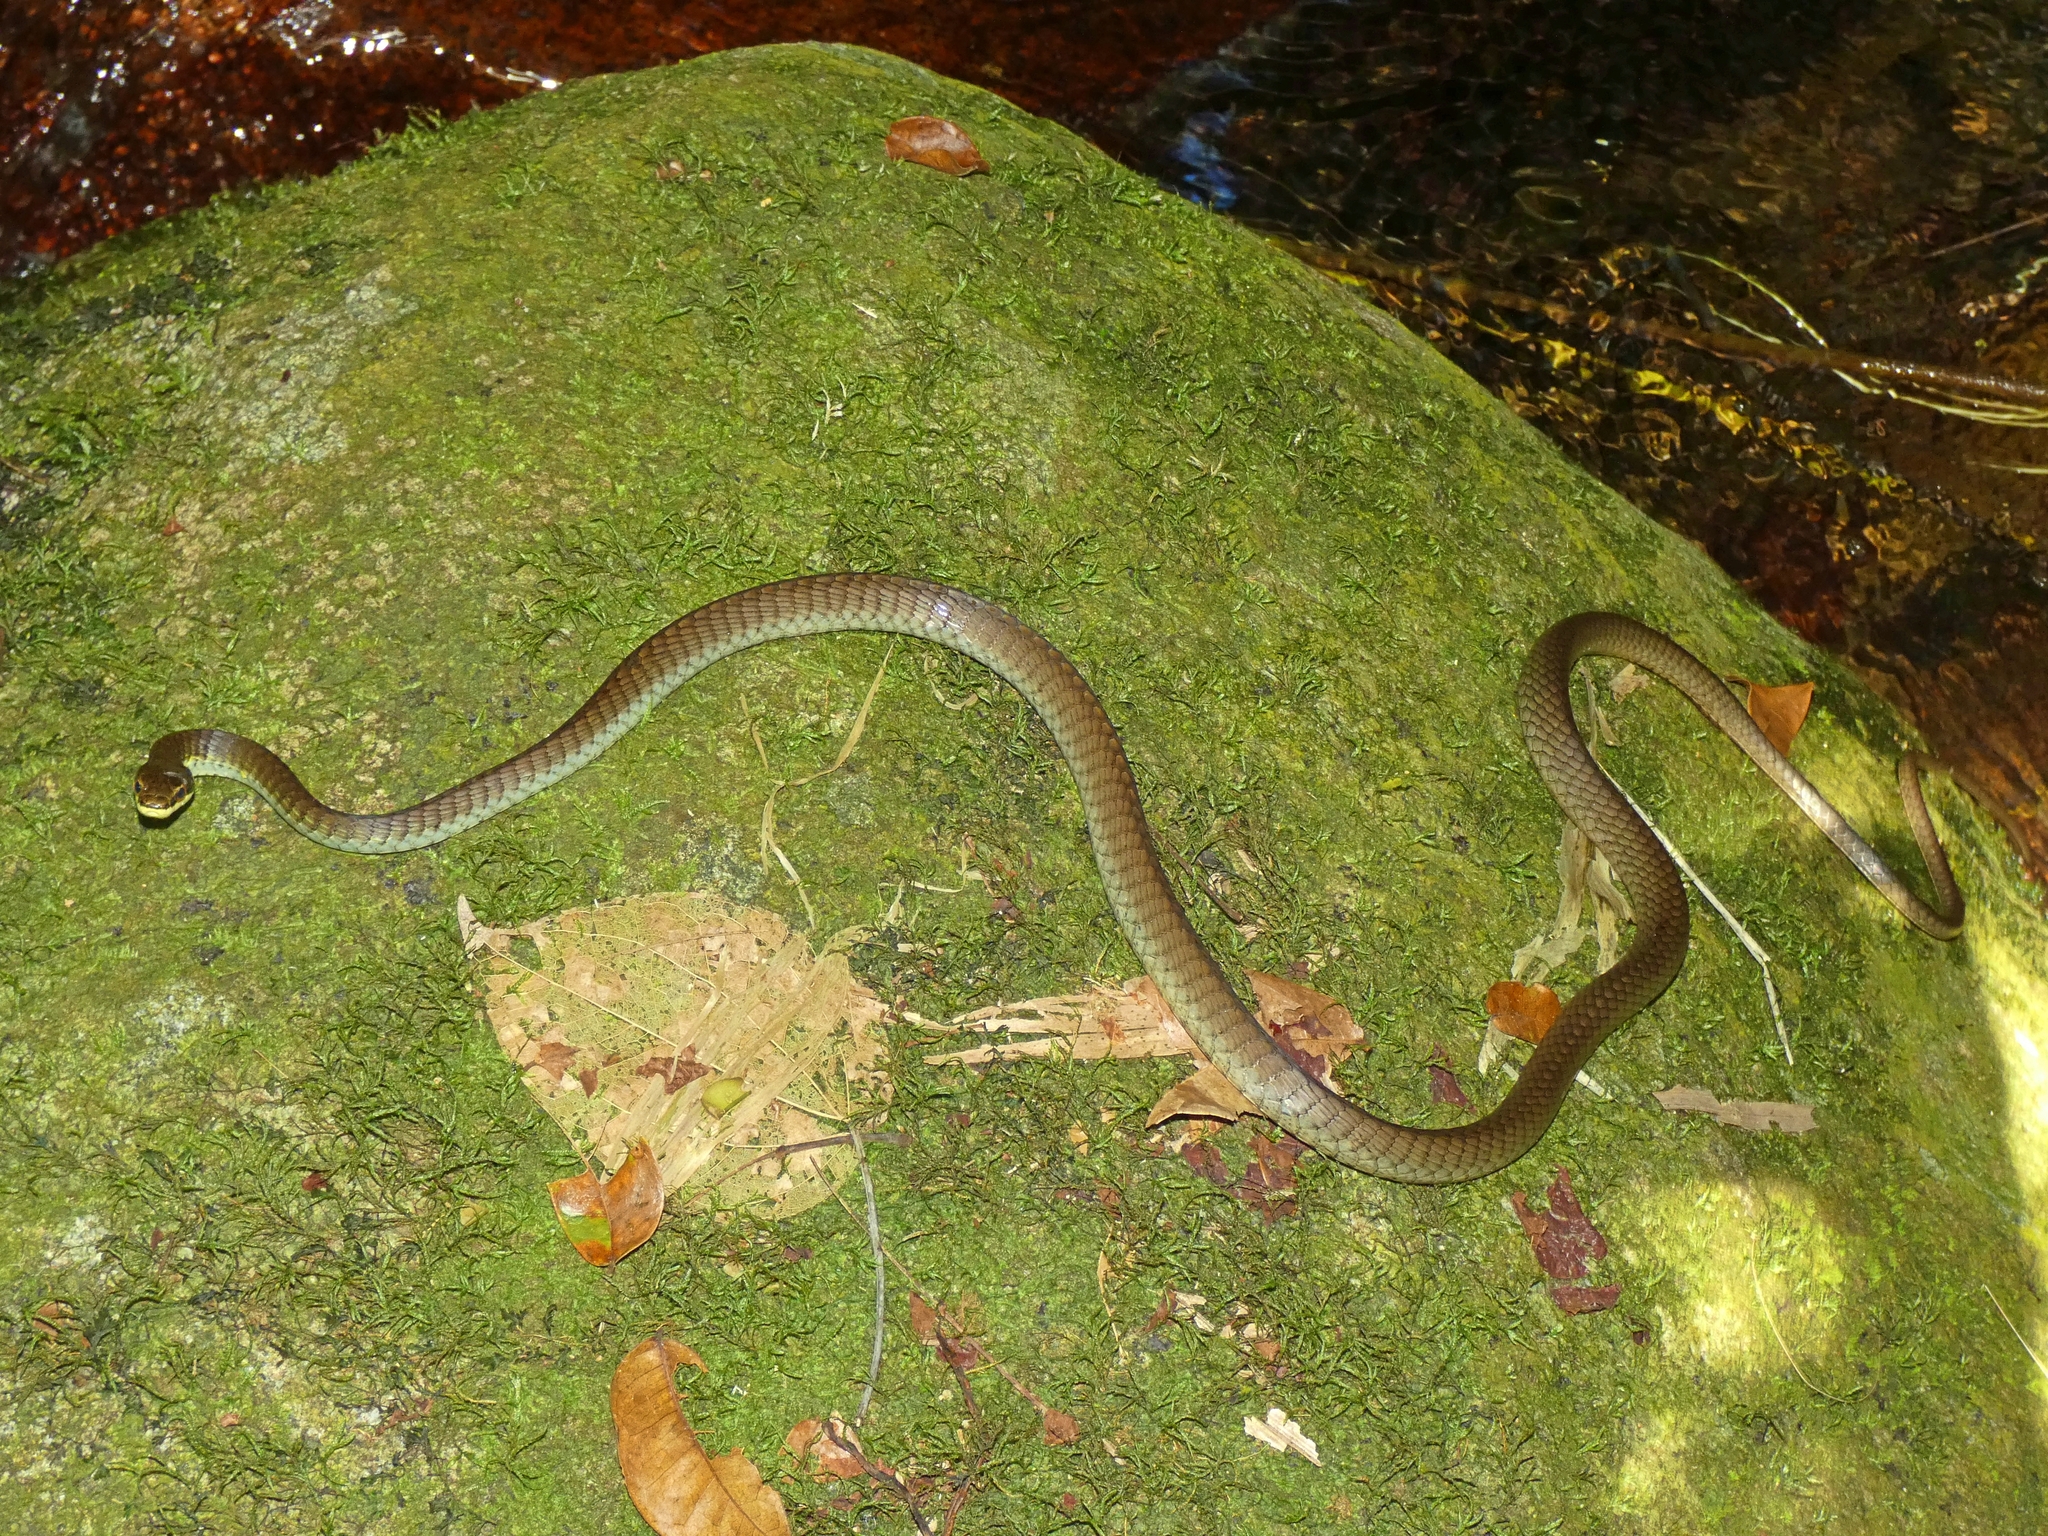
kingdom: Animalia
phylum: Chordata
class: Squamata
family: Colubridae
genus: Dendrelaphis
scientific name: Dendrelaphis calligaster
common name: Green tree snake
